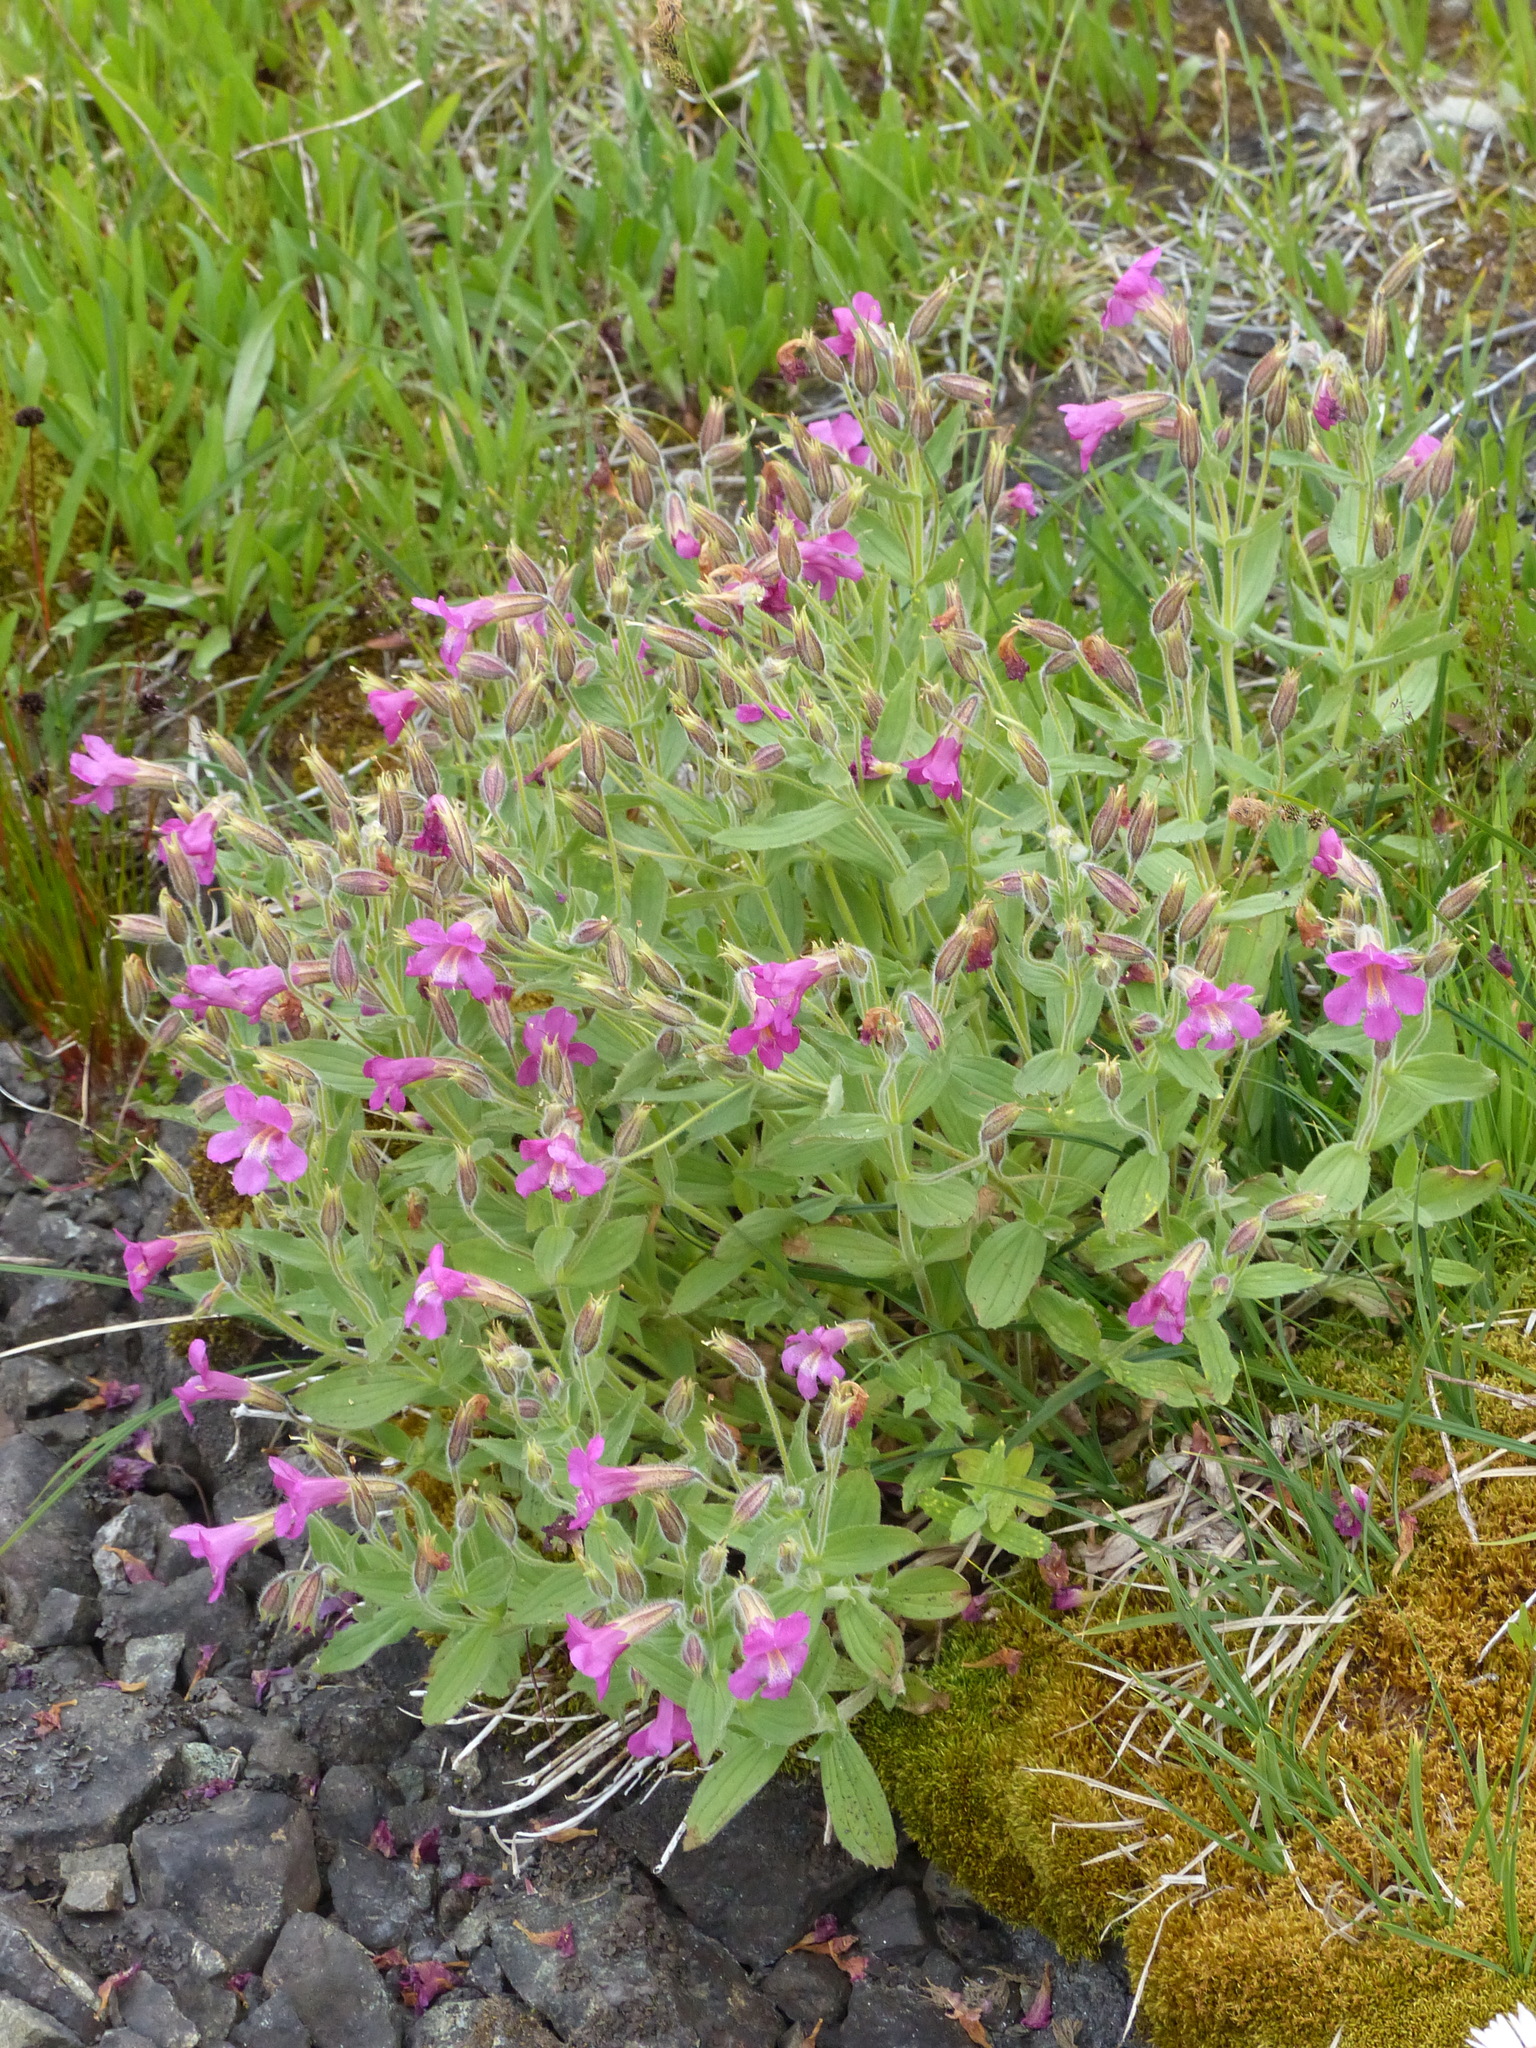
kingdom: Plantae
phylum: Tracheophyta
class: Magnoliopsida
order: Lamiales
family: Phrymaceae
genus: Erythranthe
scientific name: Erythranthe lewisii
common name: Lewis's monkey-flower
